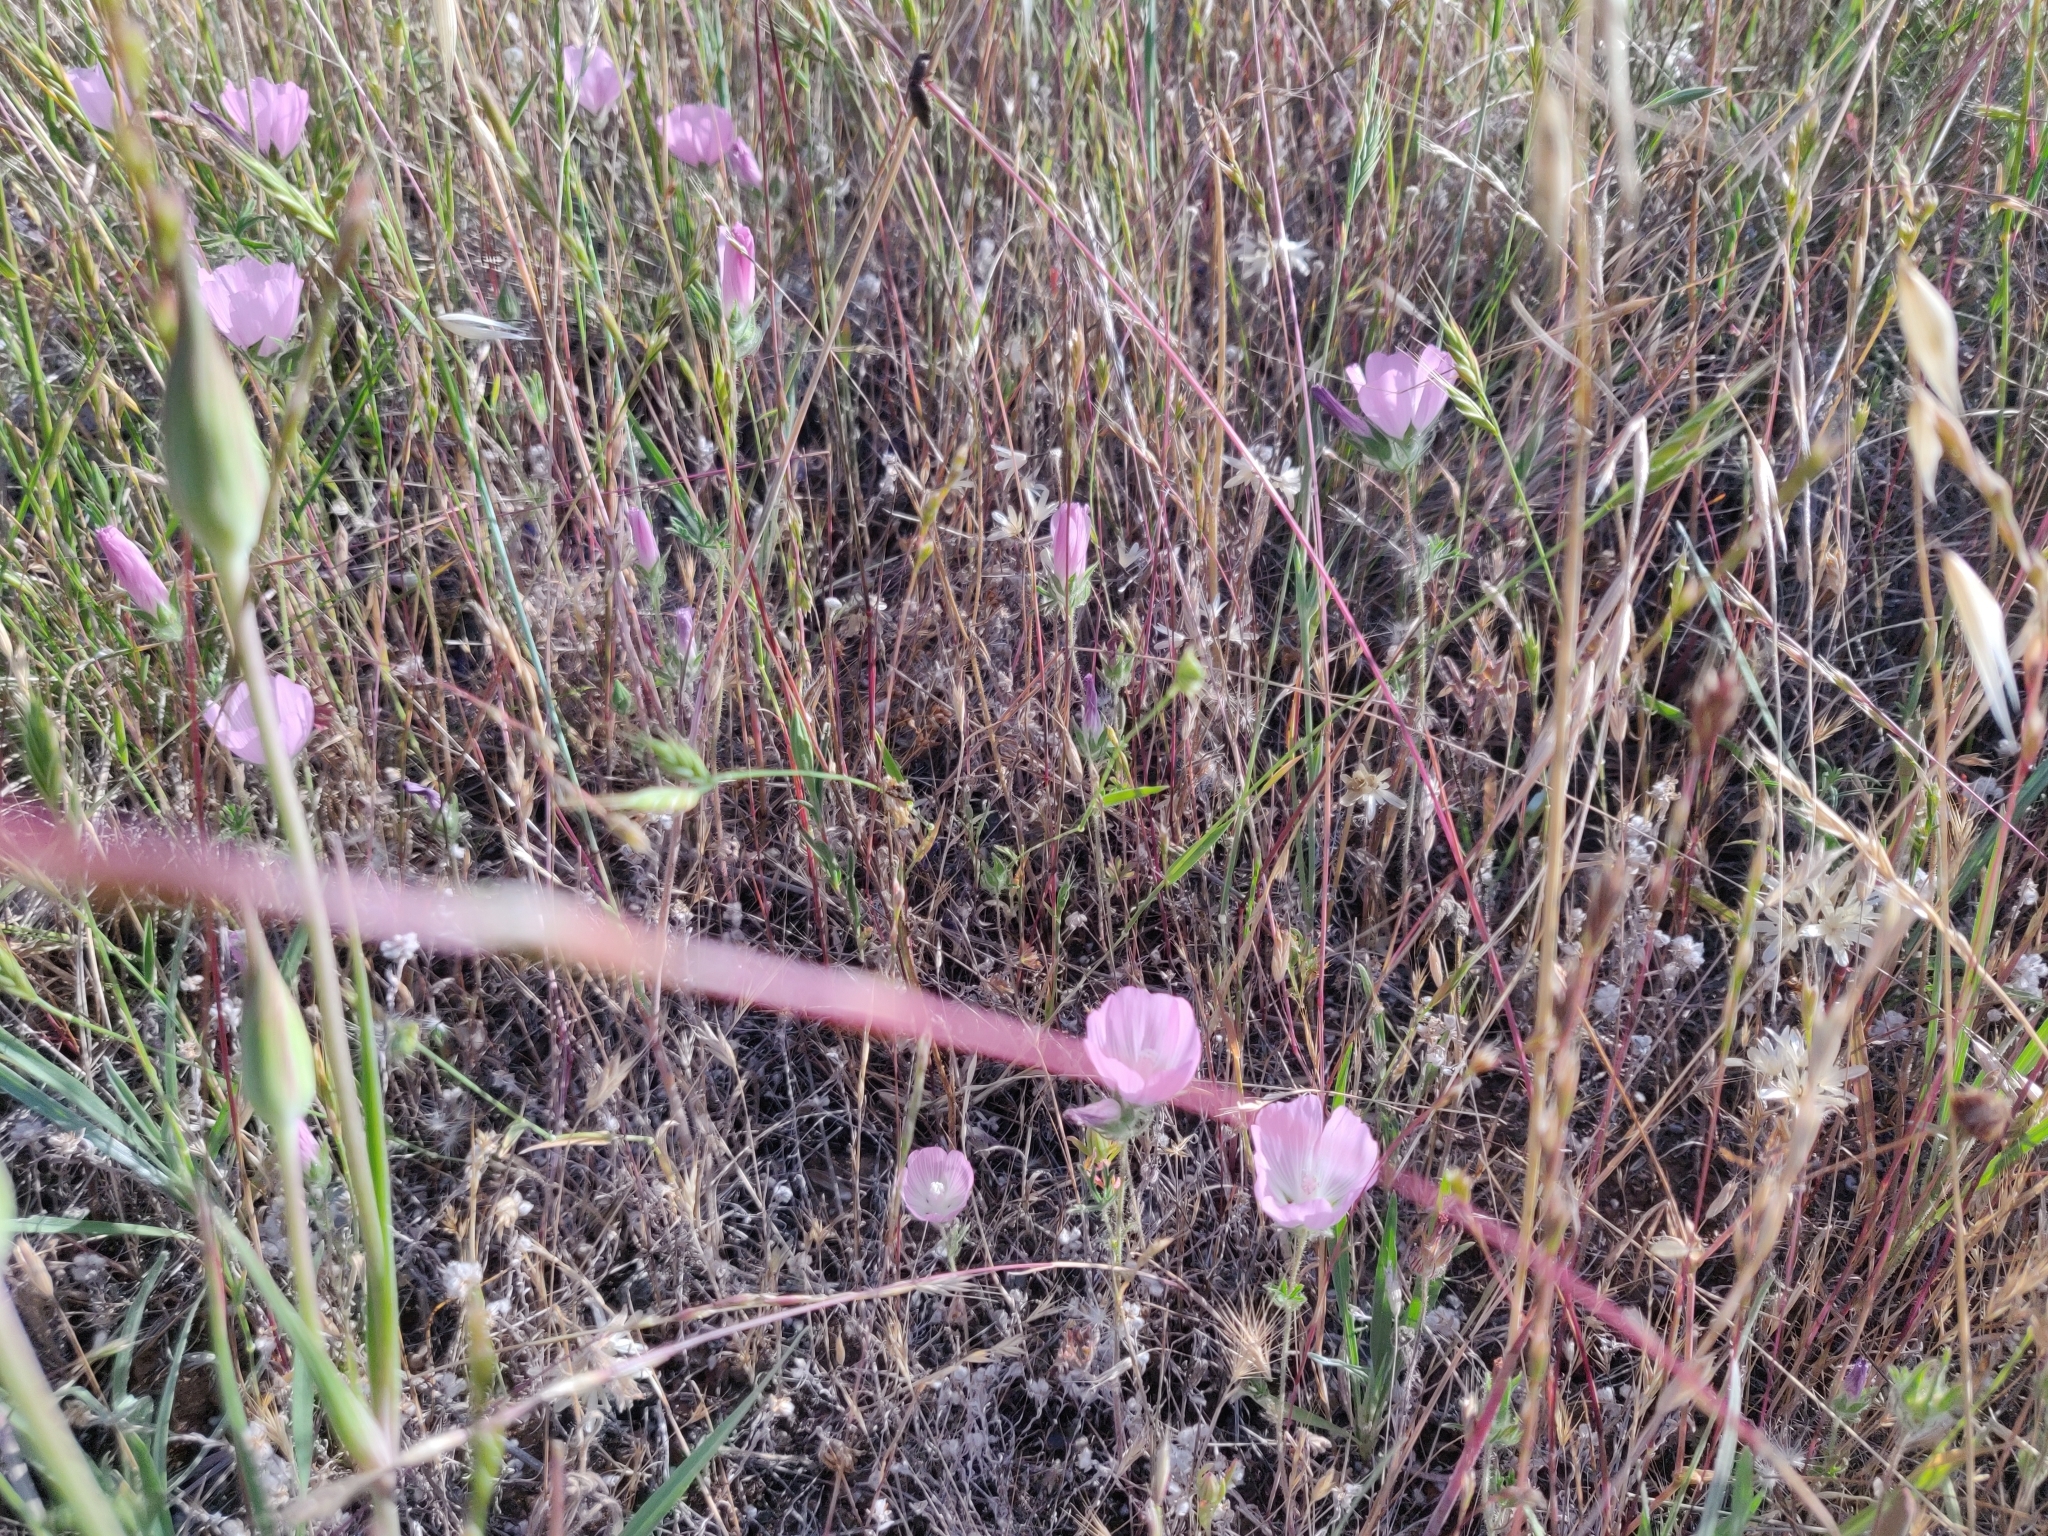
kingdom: Plantae
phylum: Tracheophyta
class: Magnoliopsida
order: Malvales
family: Malvaceae
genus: Sidalcea
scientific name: Sidalcea diploscypha
